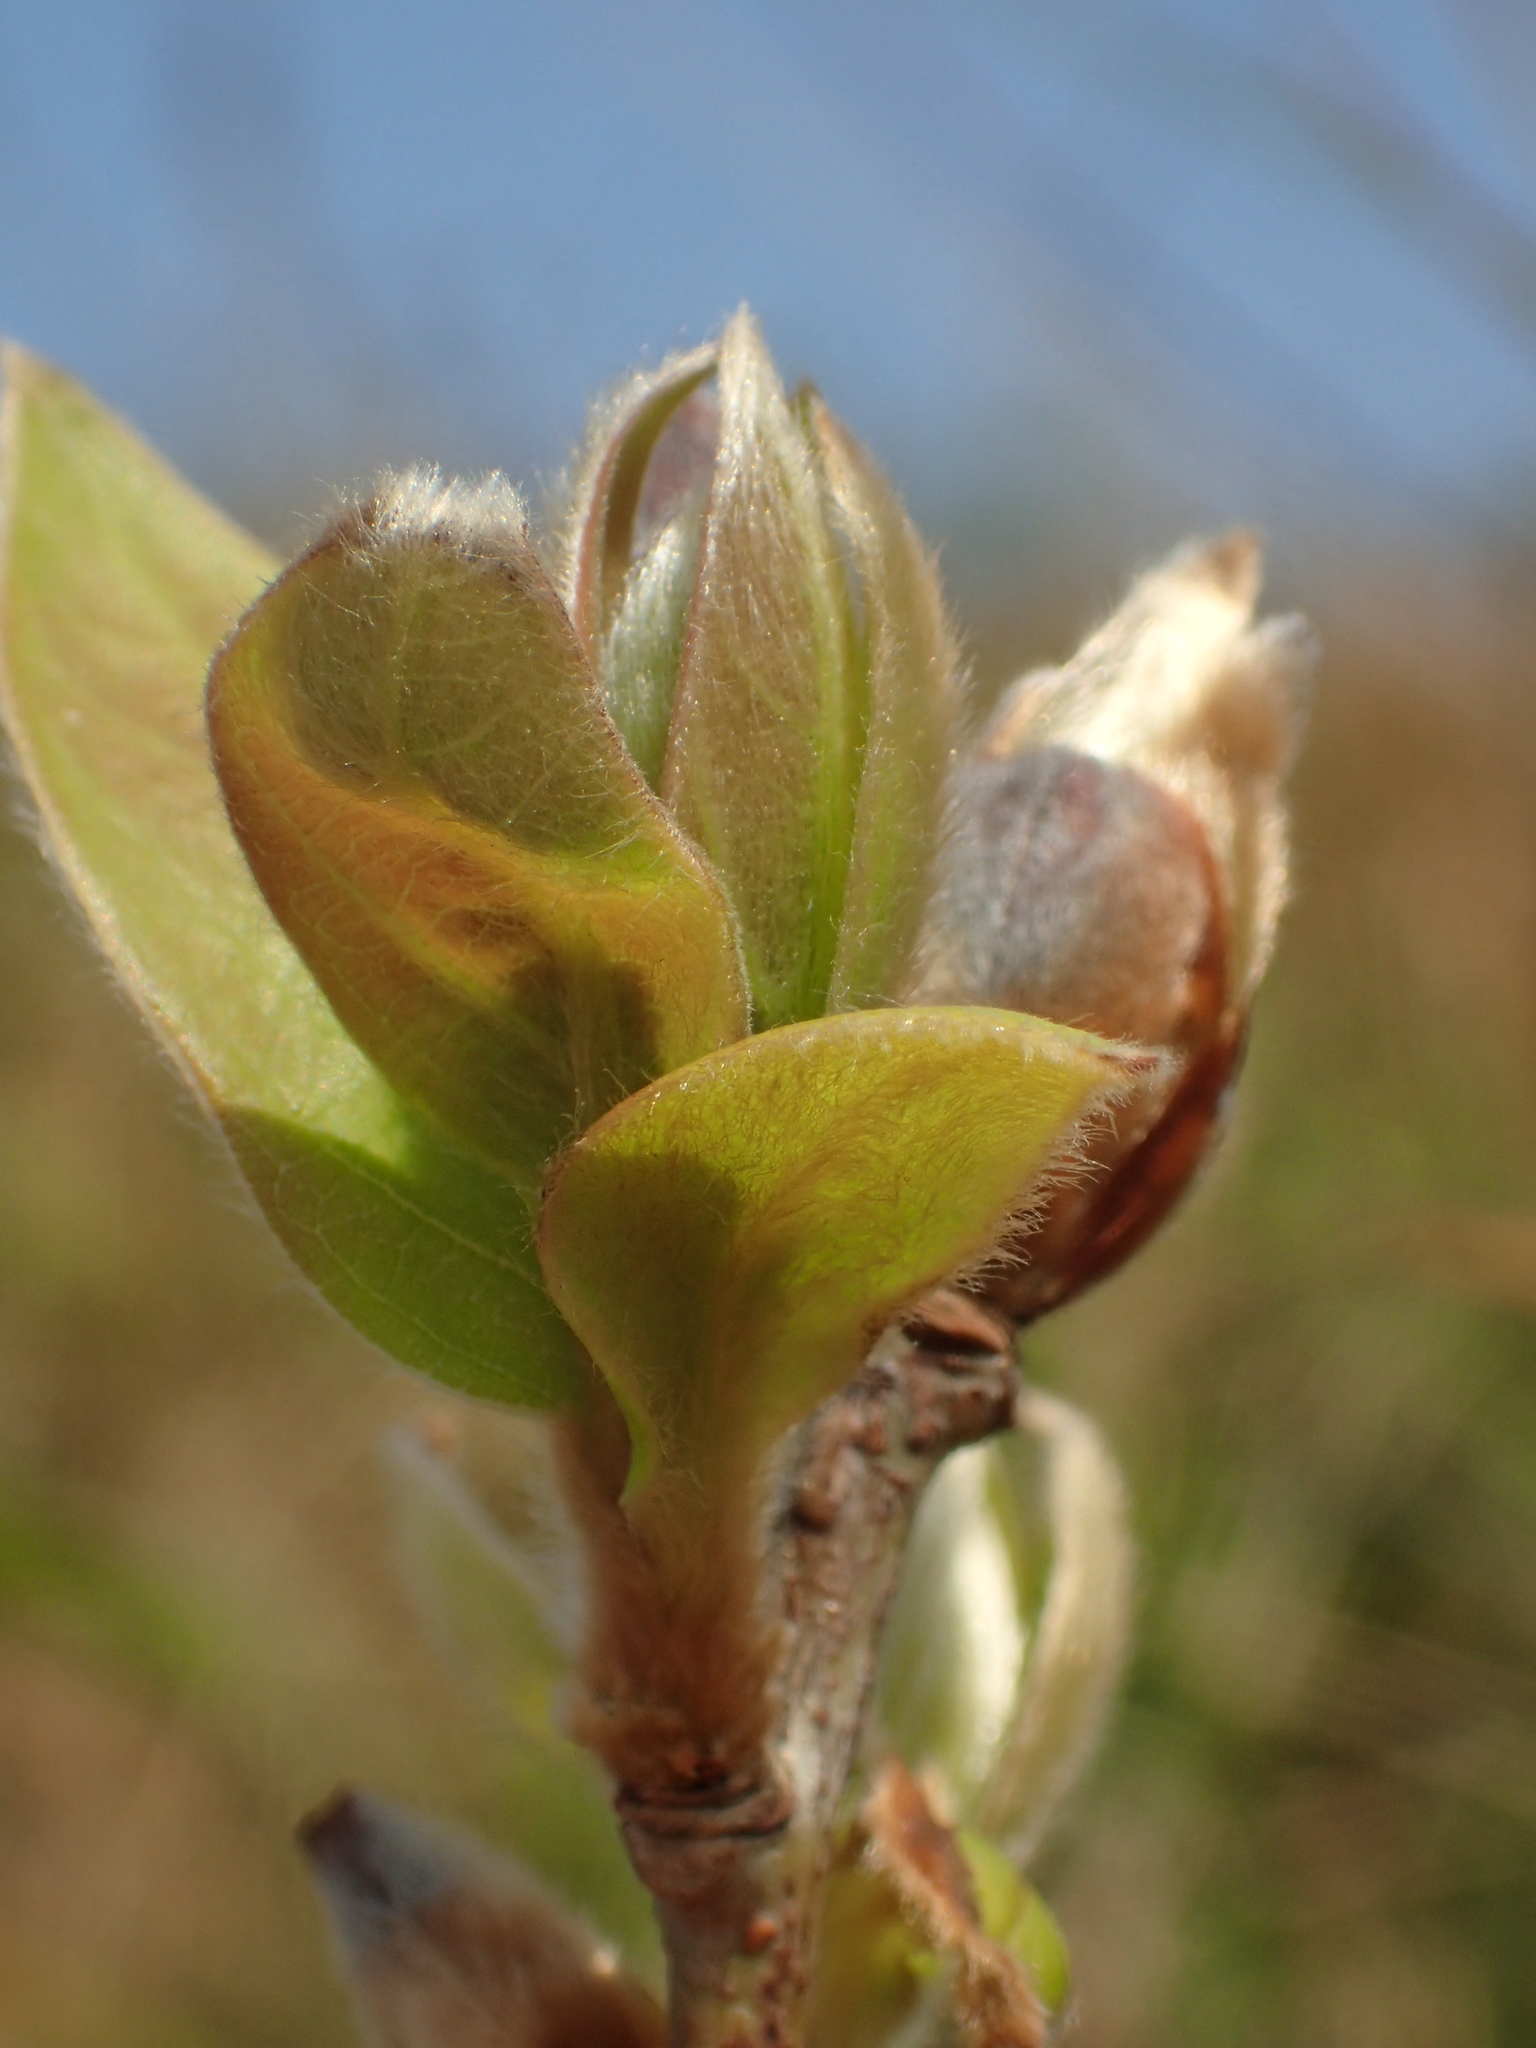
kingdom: Plantae
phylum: Tracheophyta
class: Magnoliopsida
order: Laurales
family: Lauraceae
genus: Lindera
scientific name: Lindera glauca
